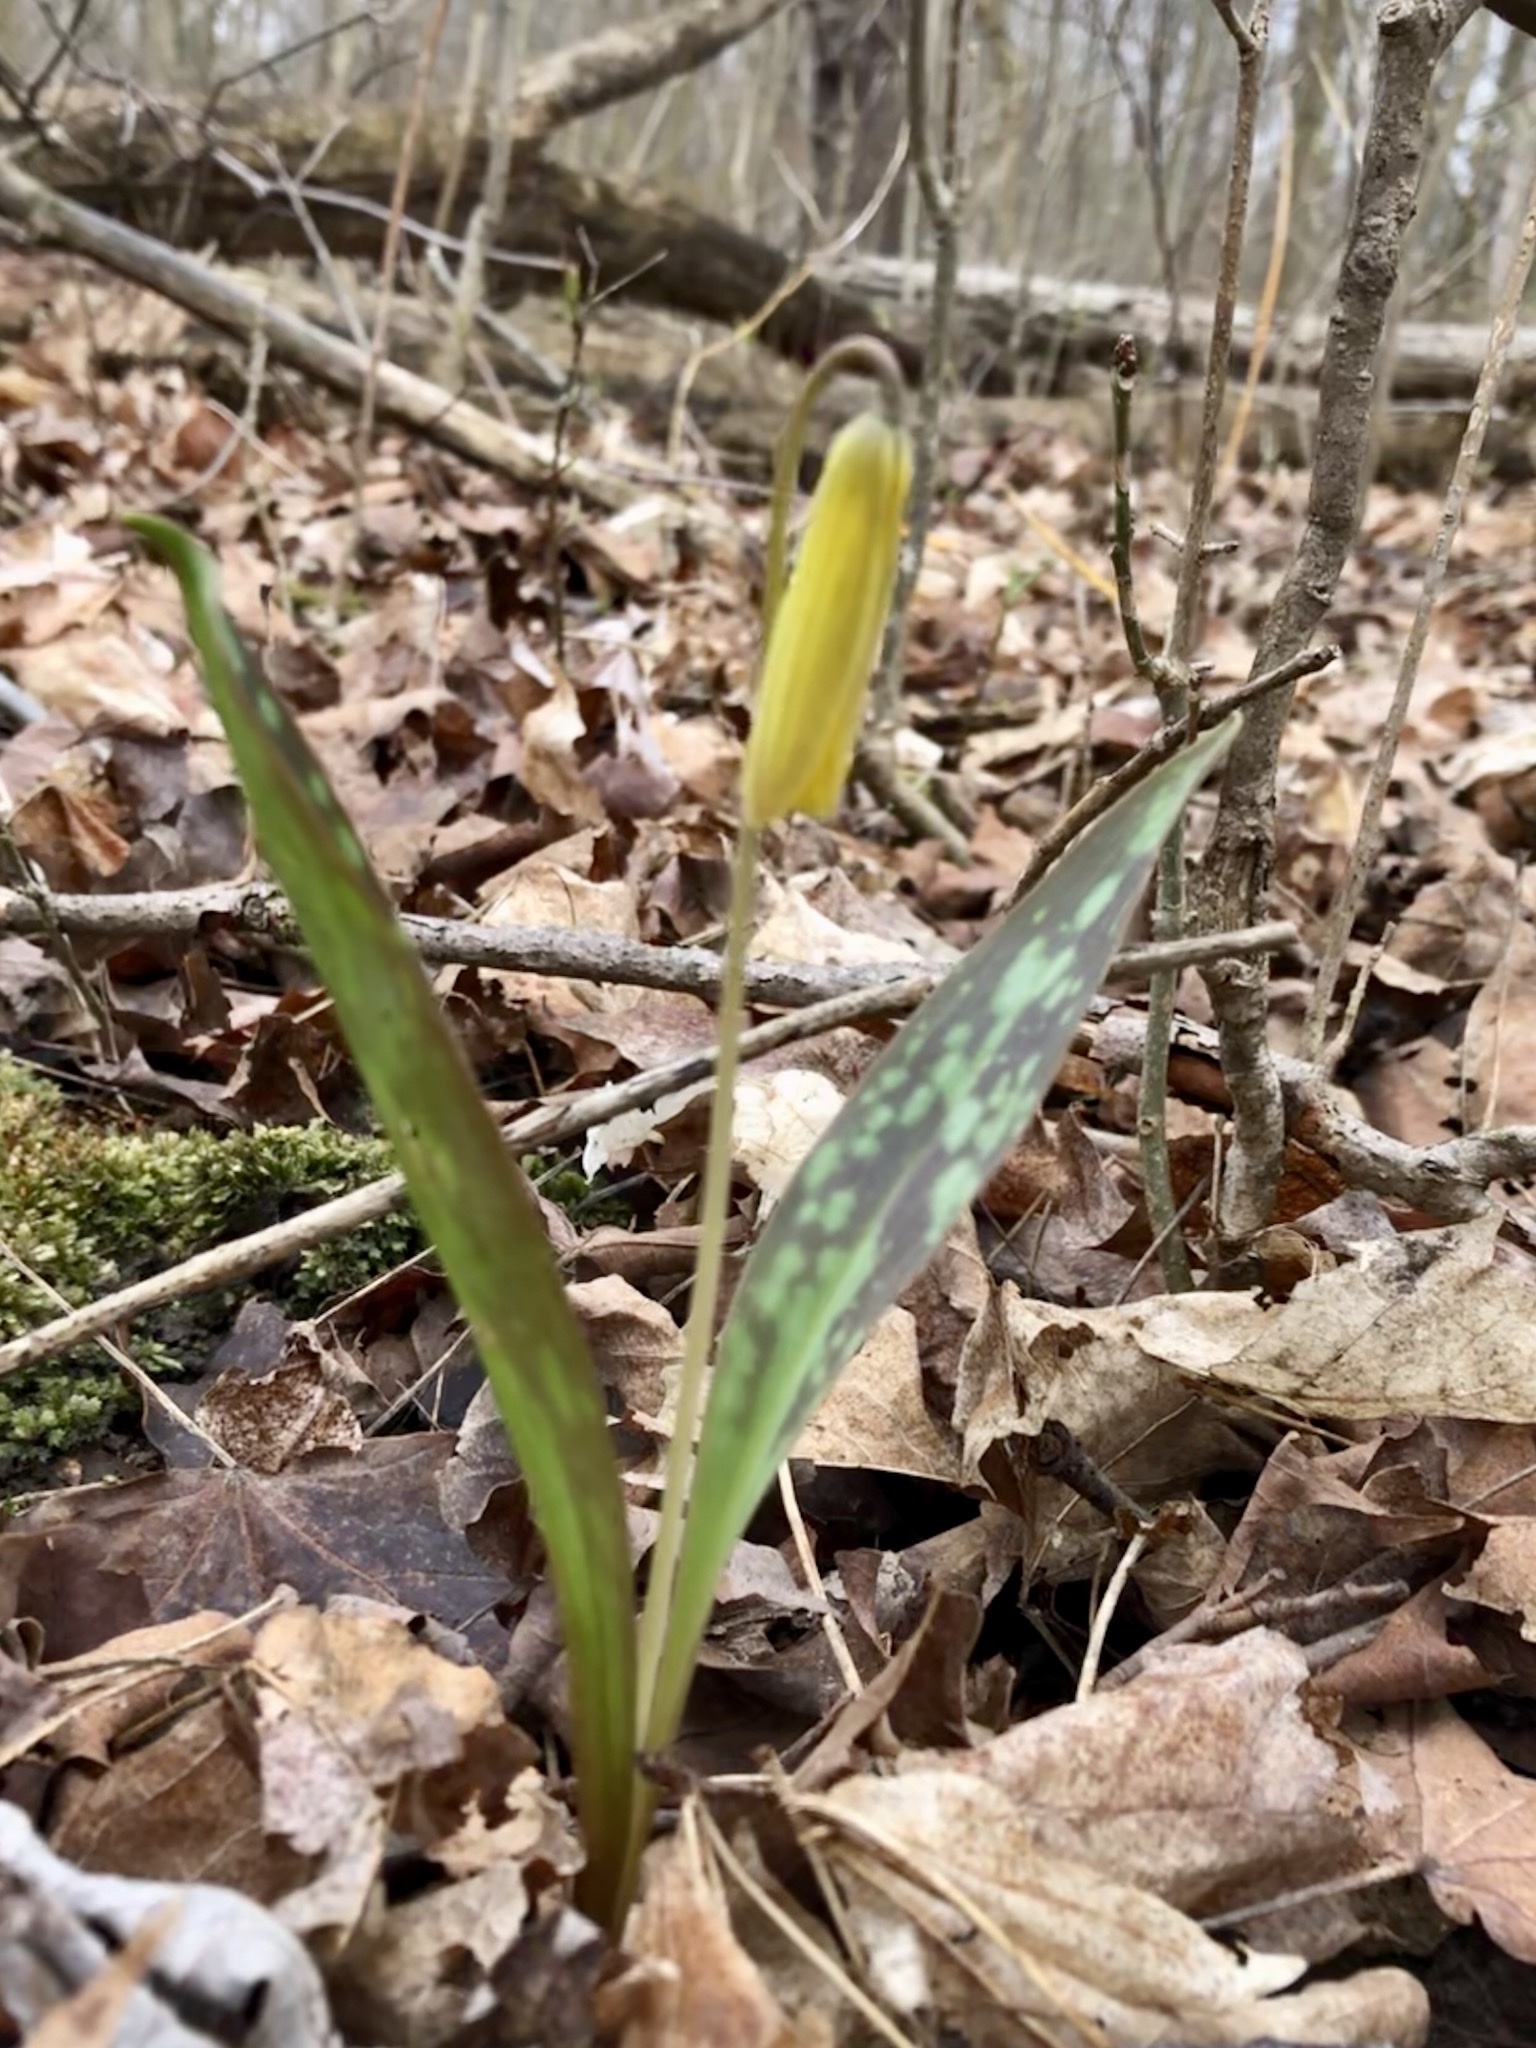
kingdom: Plantae
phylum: Tracheophyta
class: Liliopsida
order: Liliales
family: Liliaceae
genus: Erythronium
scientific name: Erythronium americanum
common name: Yellow adder's-tongue
